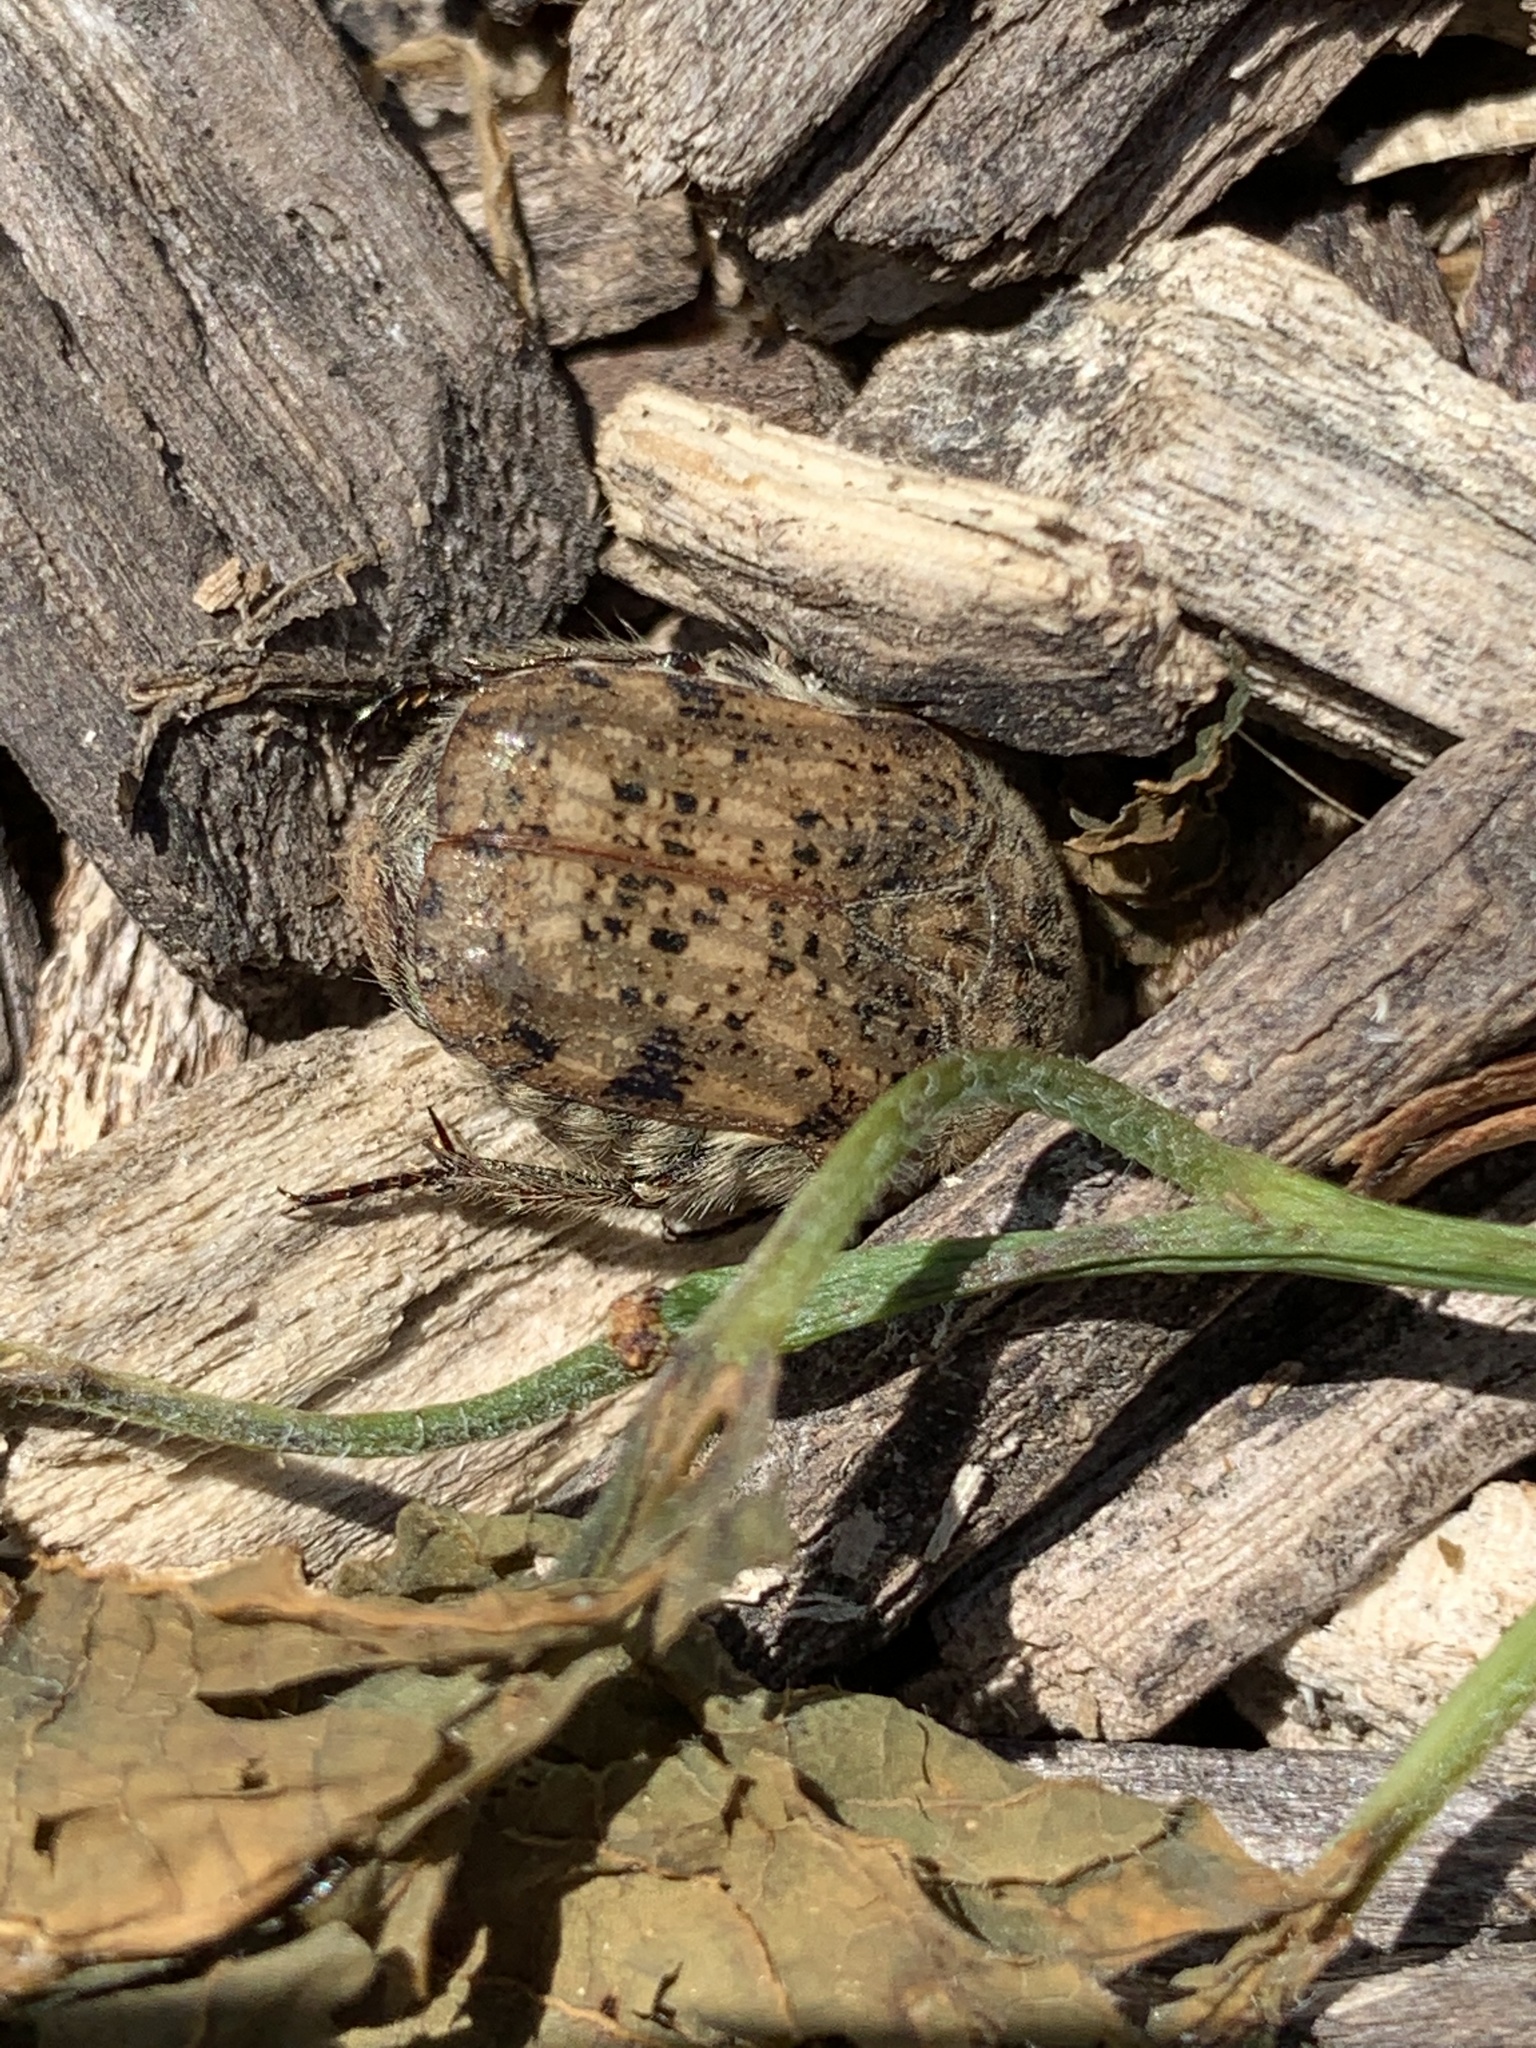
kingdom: Animalia
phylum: Arthropoda
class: Insecta
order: Coleoptera
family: Scarabaeidae
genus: Euphoria
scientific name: Euphoria inda
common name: Bumble flower beetle
